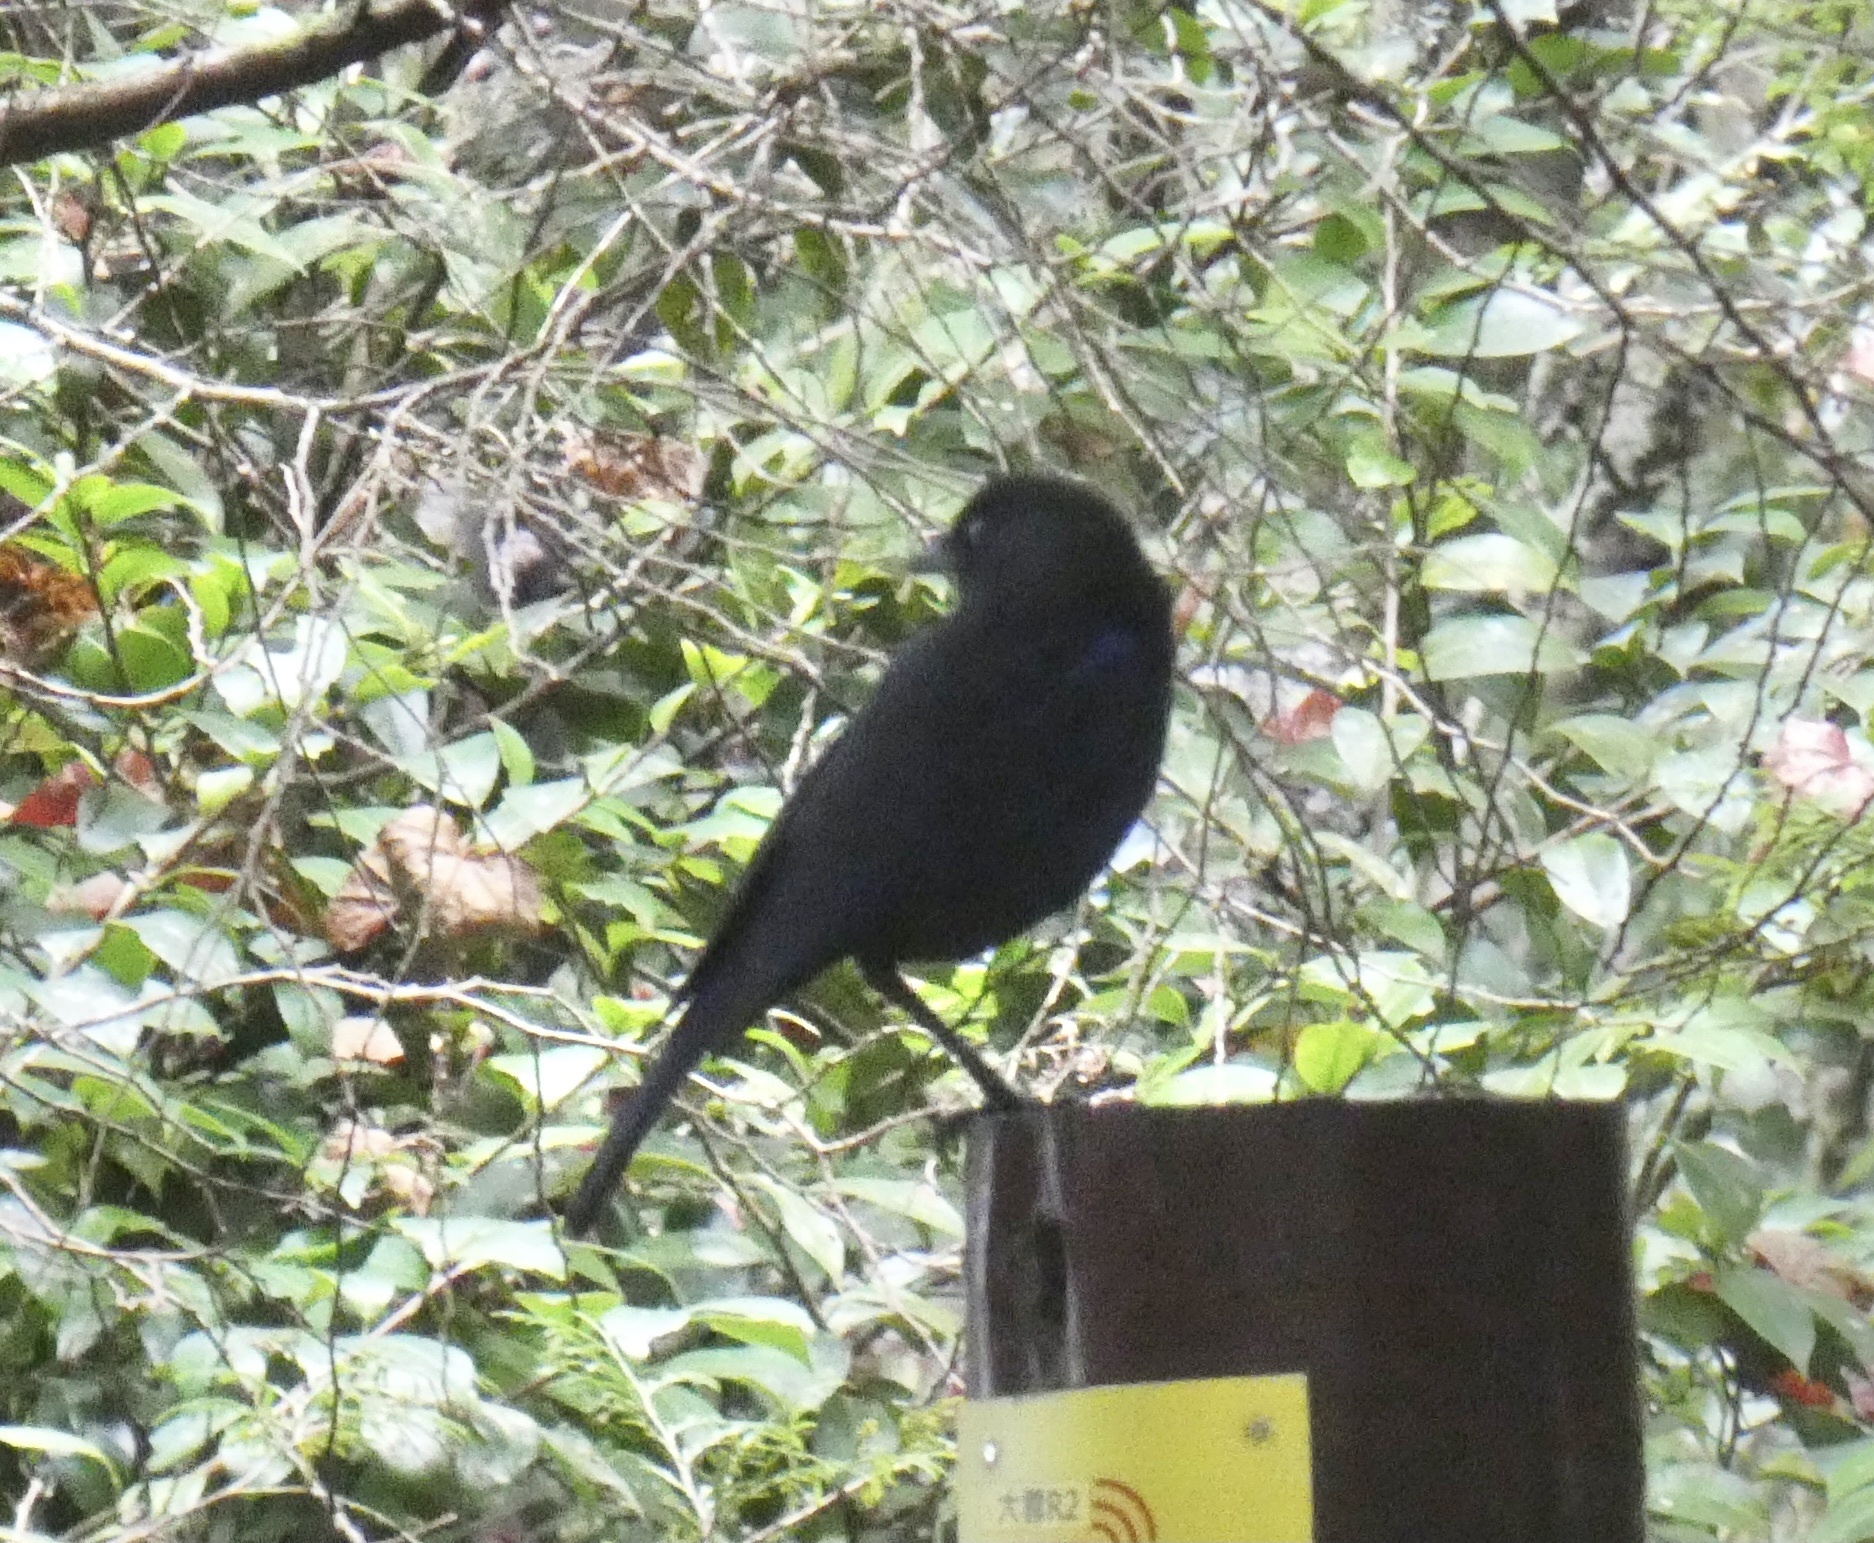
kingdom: Animalia
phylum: Chordata
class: Aves
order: Passeriformes
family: Muscicapidae
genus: Myophonus
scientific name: Myophonus insularis
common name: Taiwan whistling-thrush
